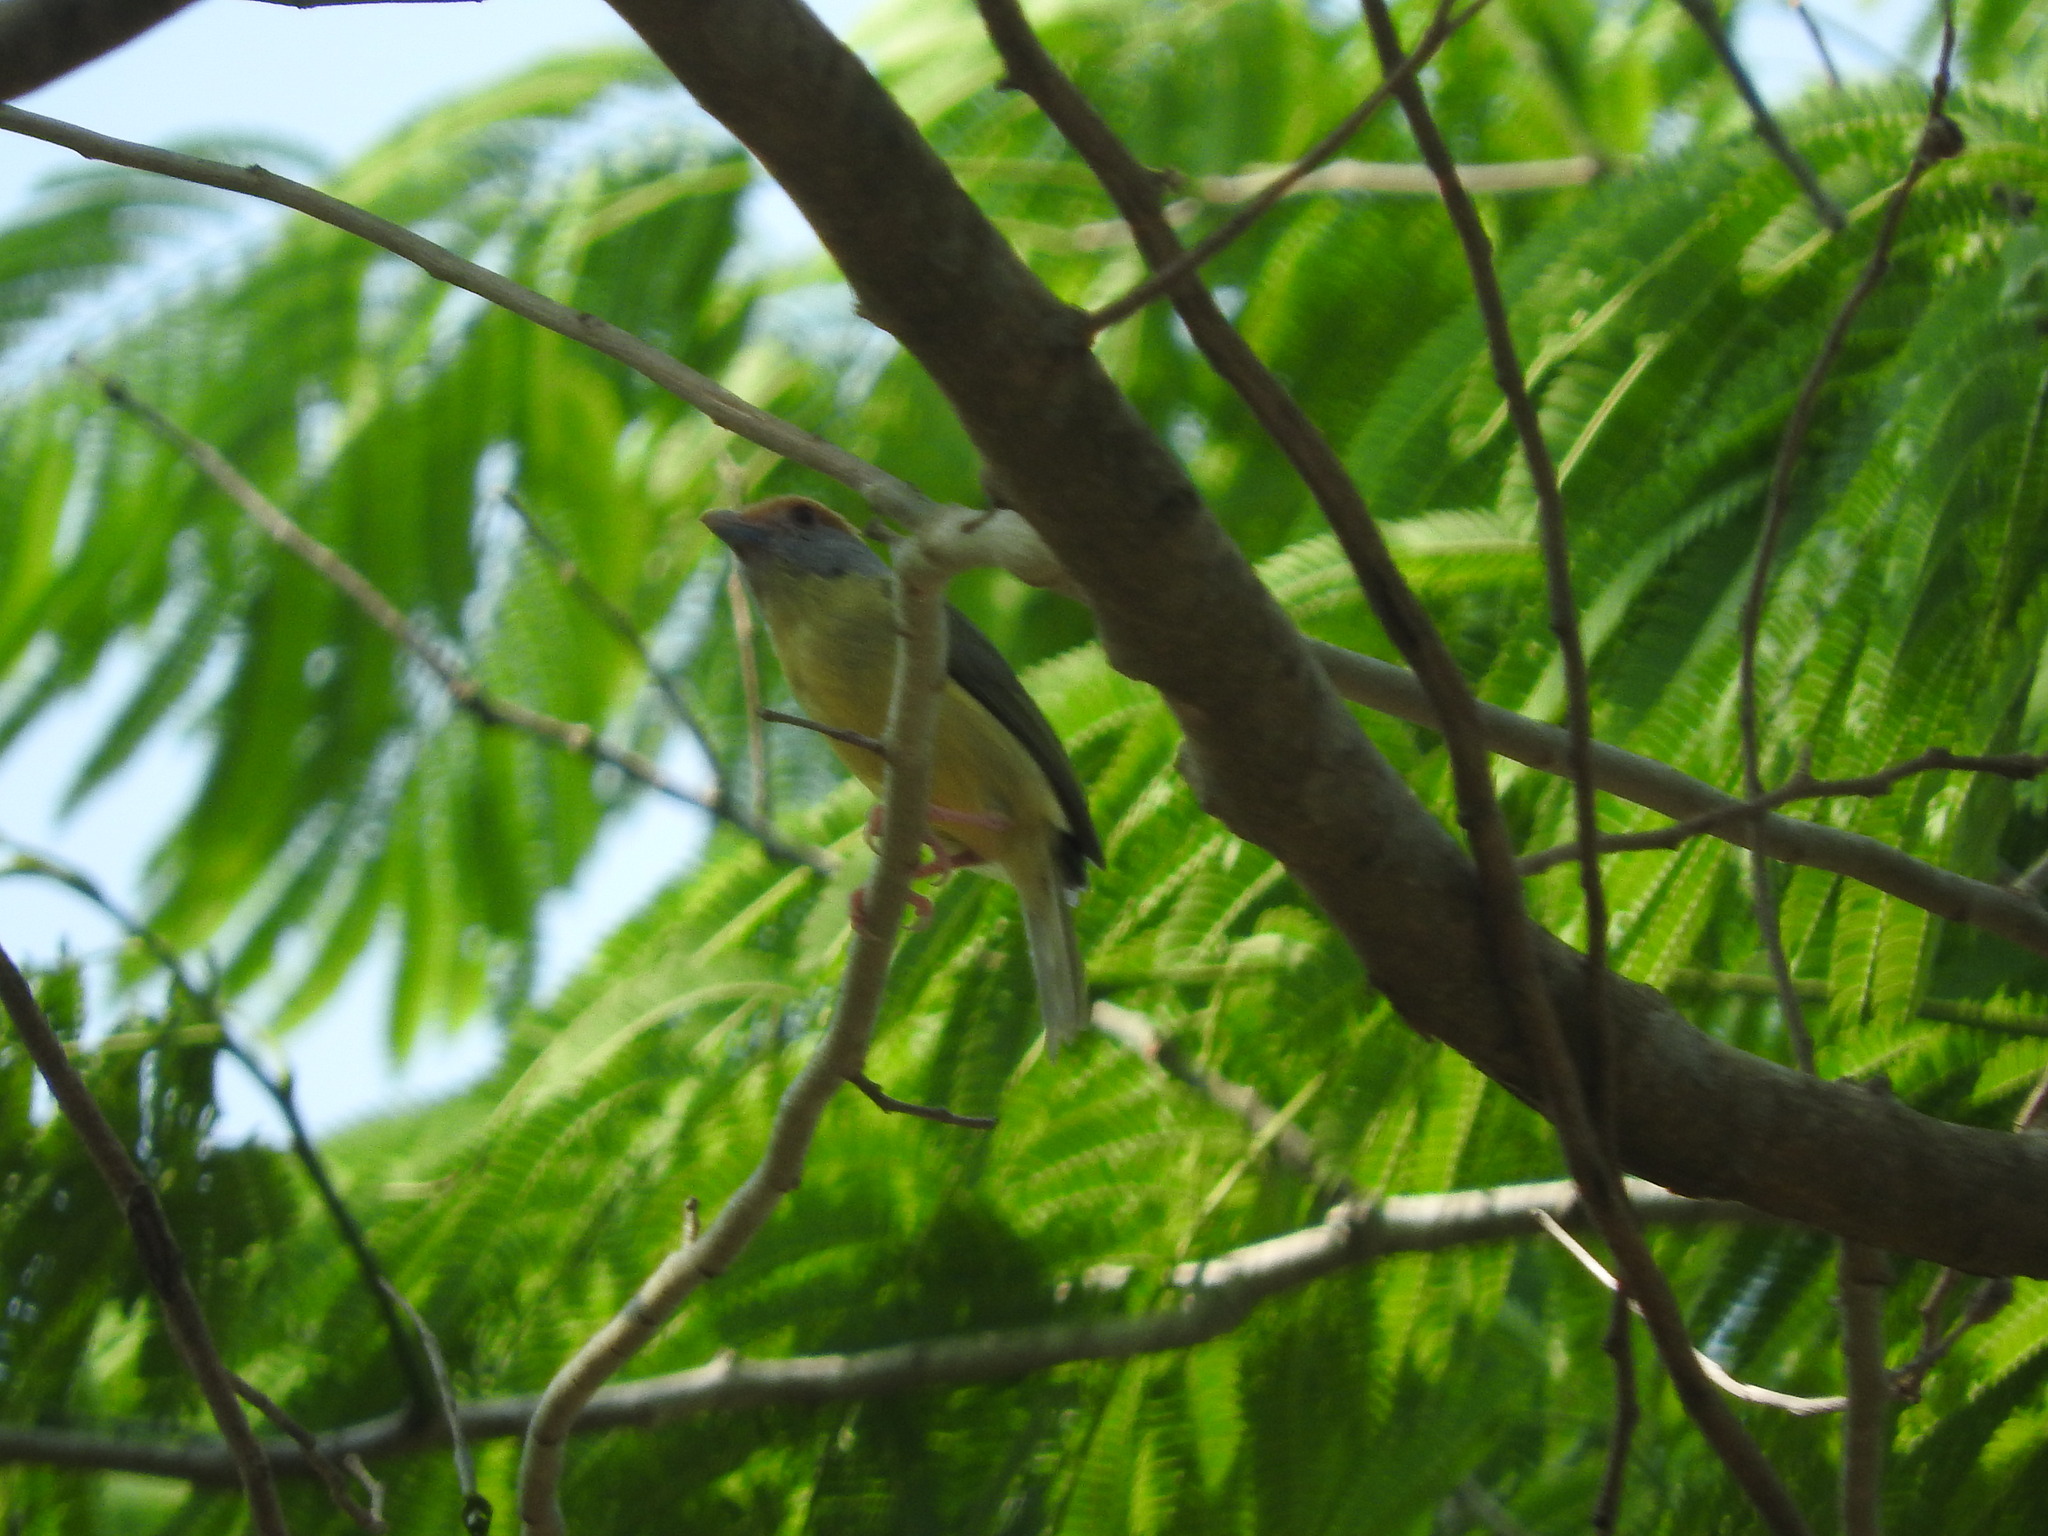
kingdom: Animalia
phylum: Chordata
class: Aves
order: Passeriformes
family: Vireonidae
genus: Cyclarhis
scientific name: Cyclarhis gujanensis
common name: Rufous-browed peppershrike
